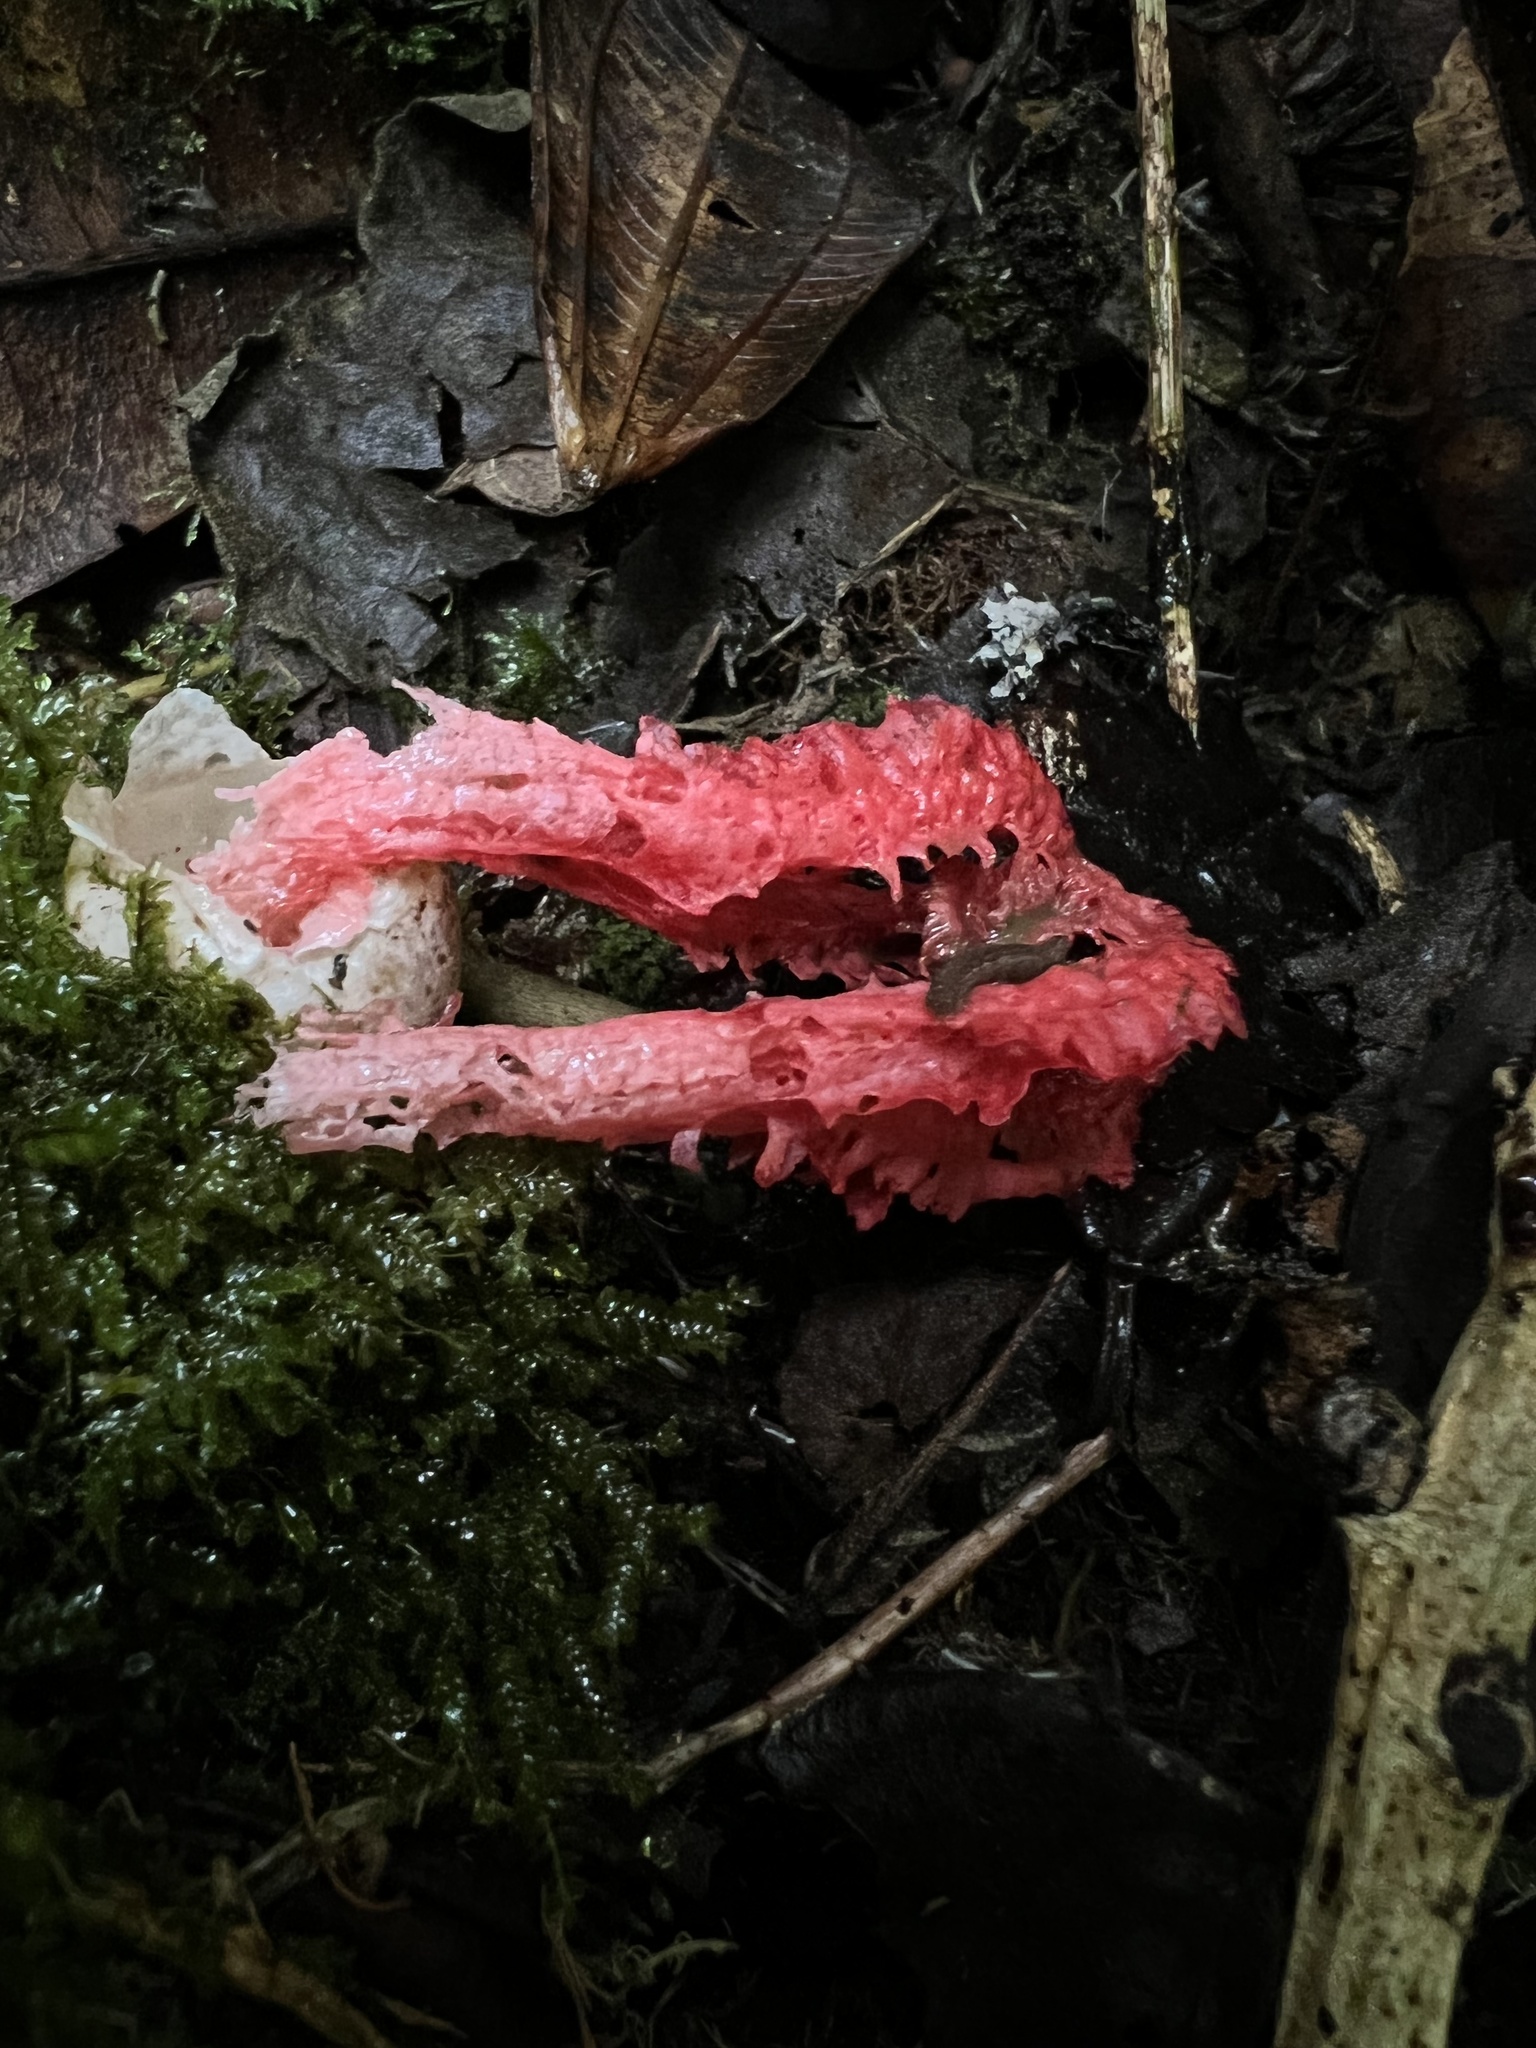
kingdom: Fungi
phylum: Basidiomycota
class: Agaricomycetes
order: Phallales
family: Phallaceae
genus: Laternea
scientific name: Laternea pusilla
